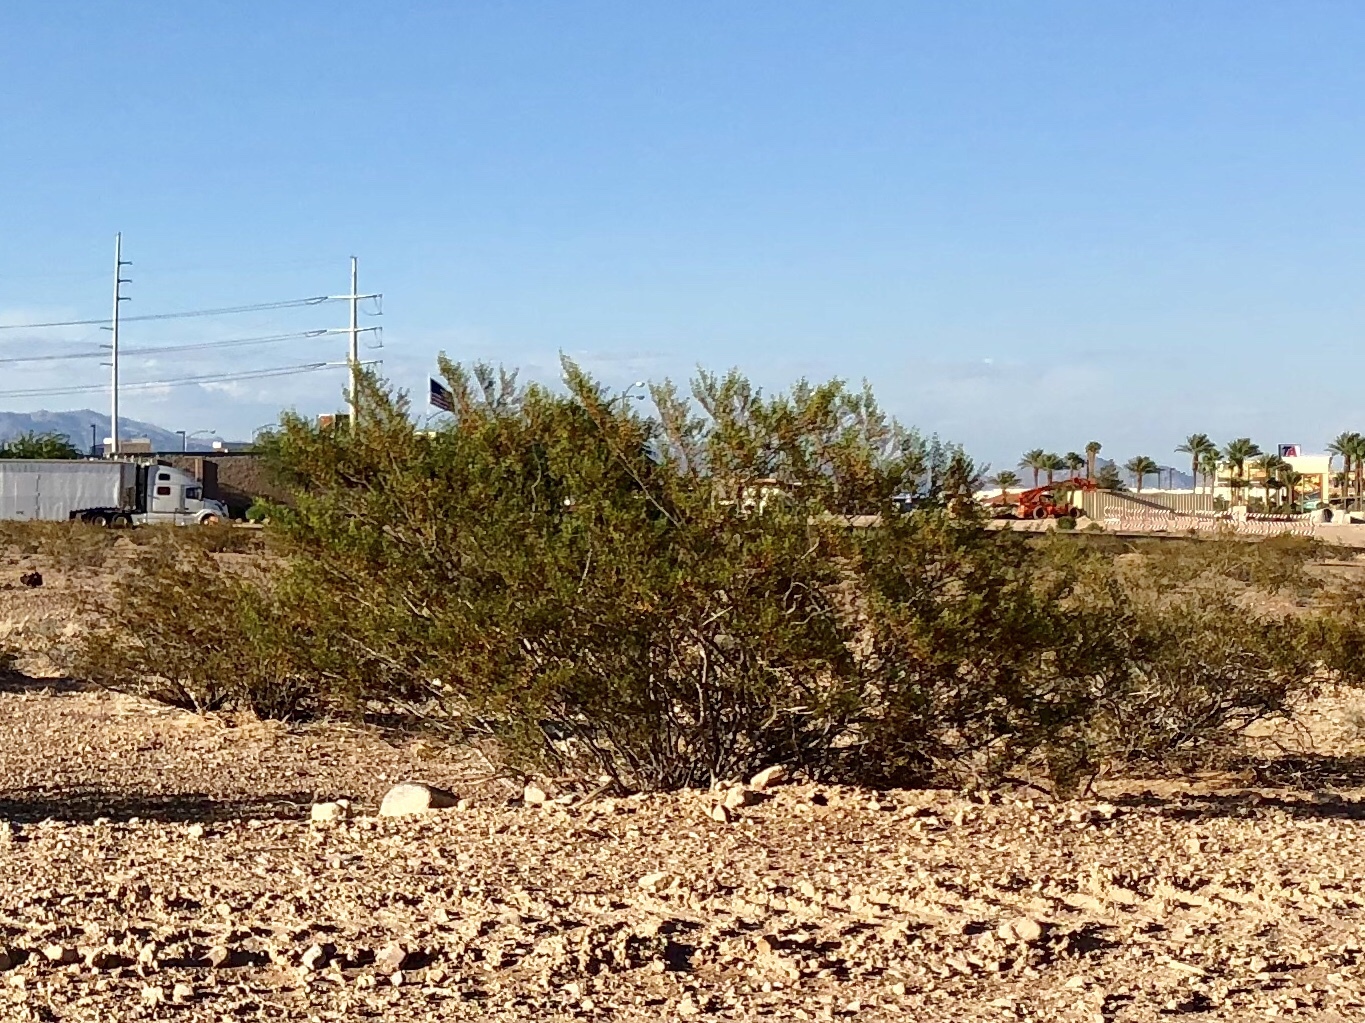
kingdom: Plantae
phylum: Tracheophyta
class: Magnoliopsida
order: Zygophyllales
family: Zygophyllaceae
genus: Larrea
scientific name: Larrea tridentata
